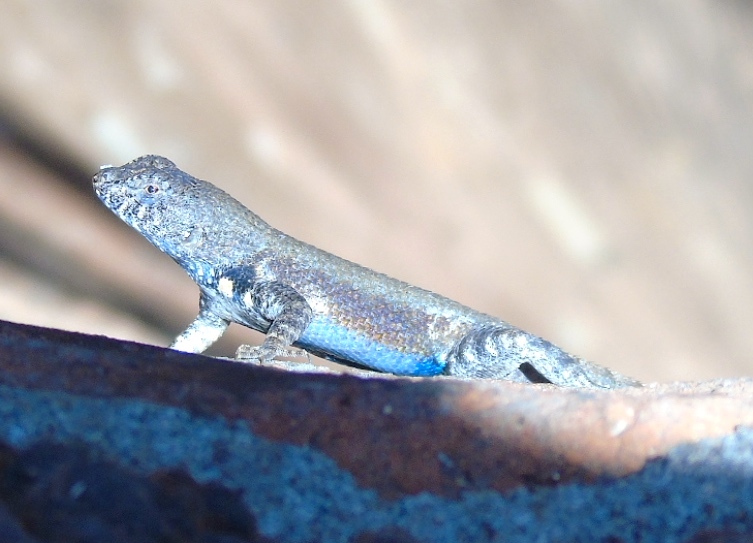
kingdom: Animalia
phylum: Chordata
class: Squamata
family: Phrynosomatidae
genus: Sceloporus
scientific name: Sceloporus nelsoni
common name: Nelson's spiny lizard
